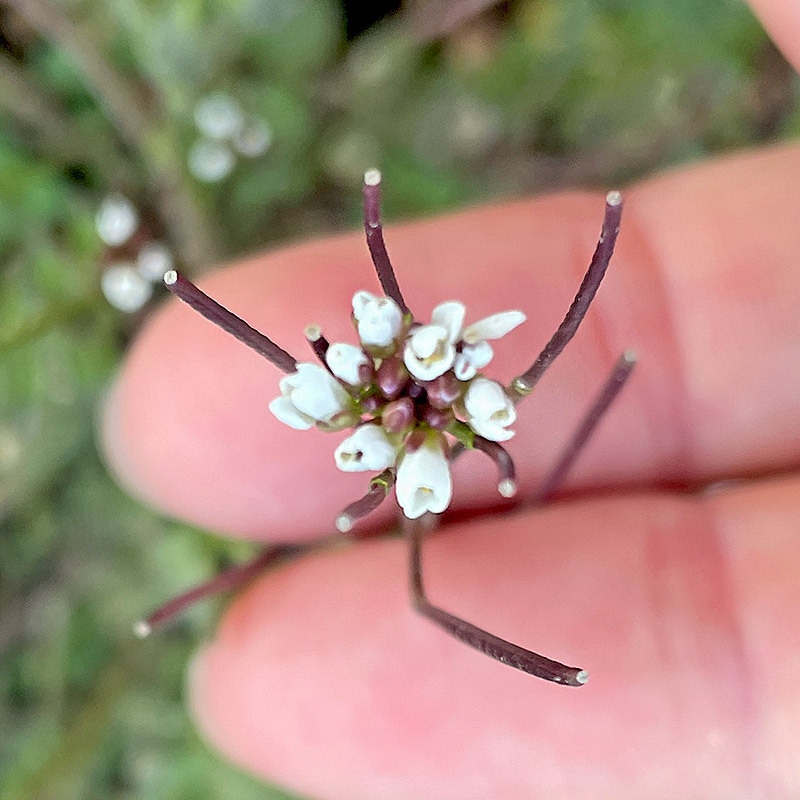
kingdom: Plantae
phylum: Tracheophyta
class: Magnoliopsida
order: Brassicales
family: Brassicaceae
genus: Cardamine
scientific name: Cardamine hirsuta
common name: Hairy bittercress
